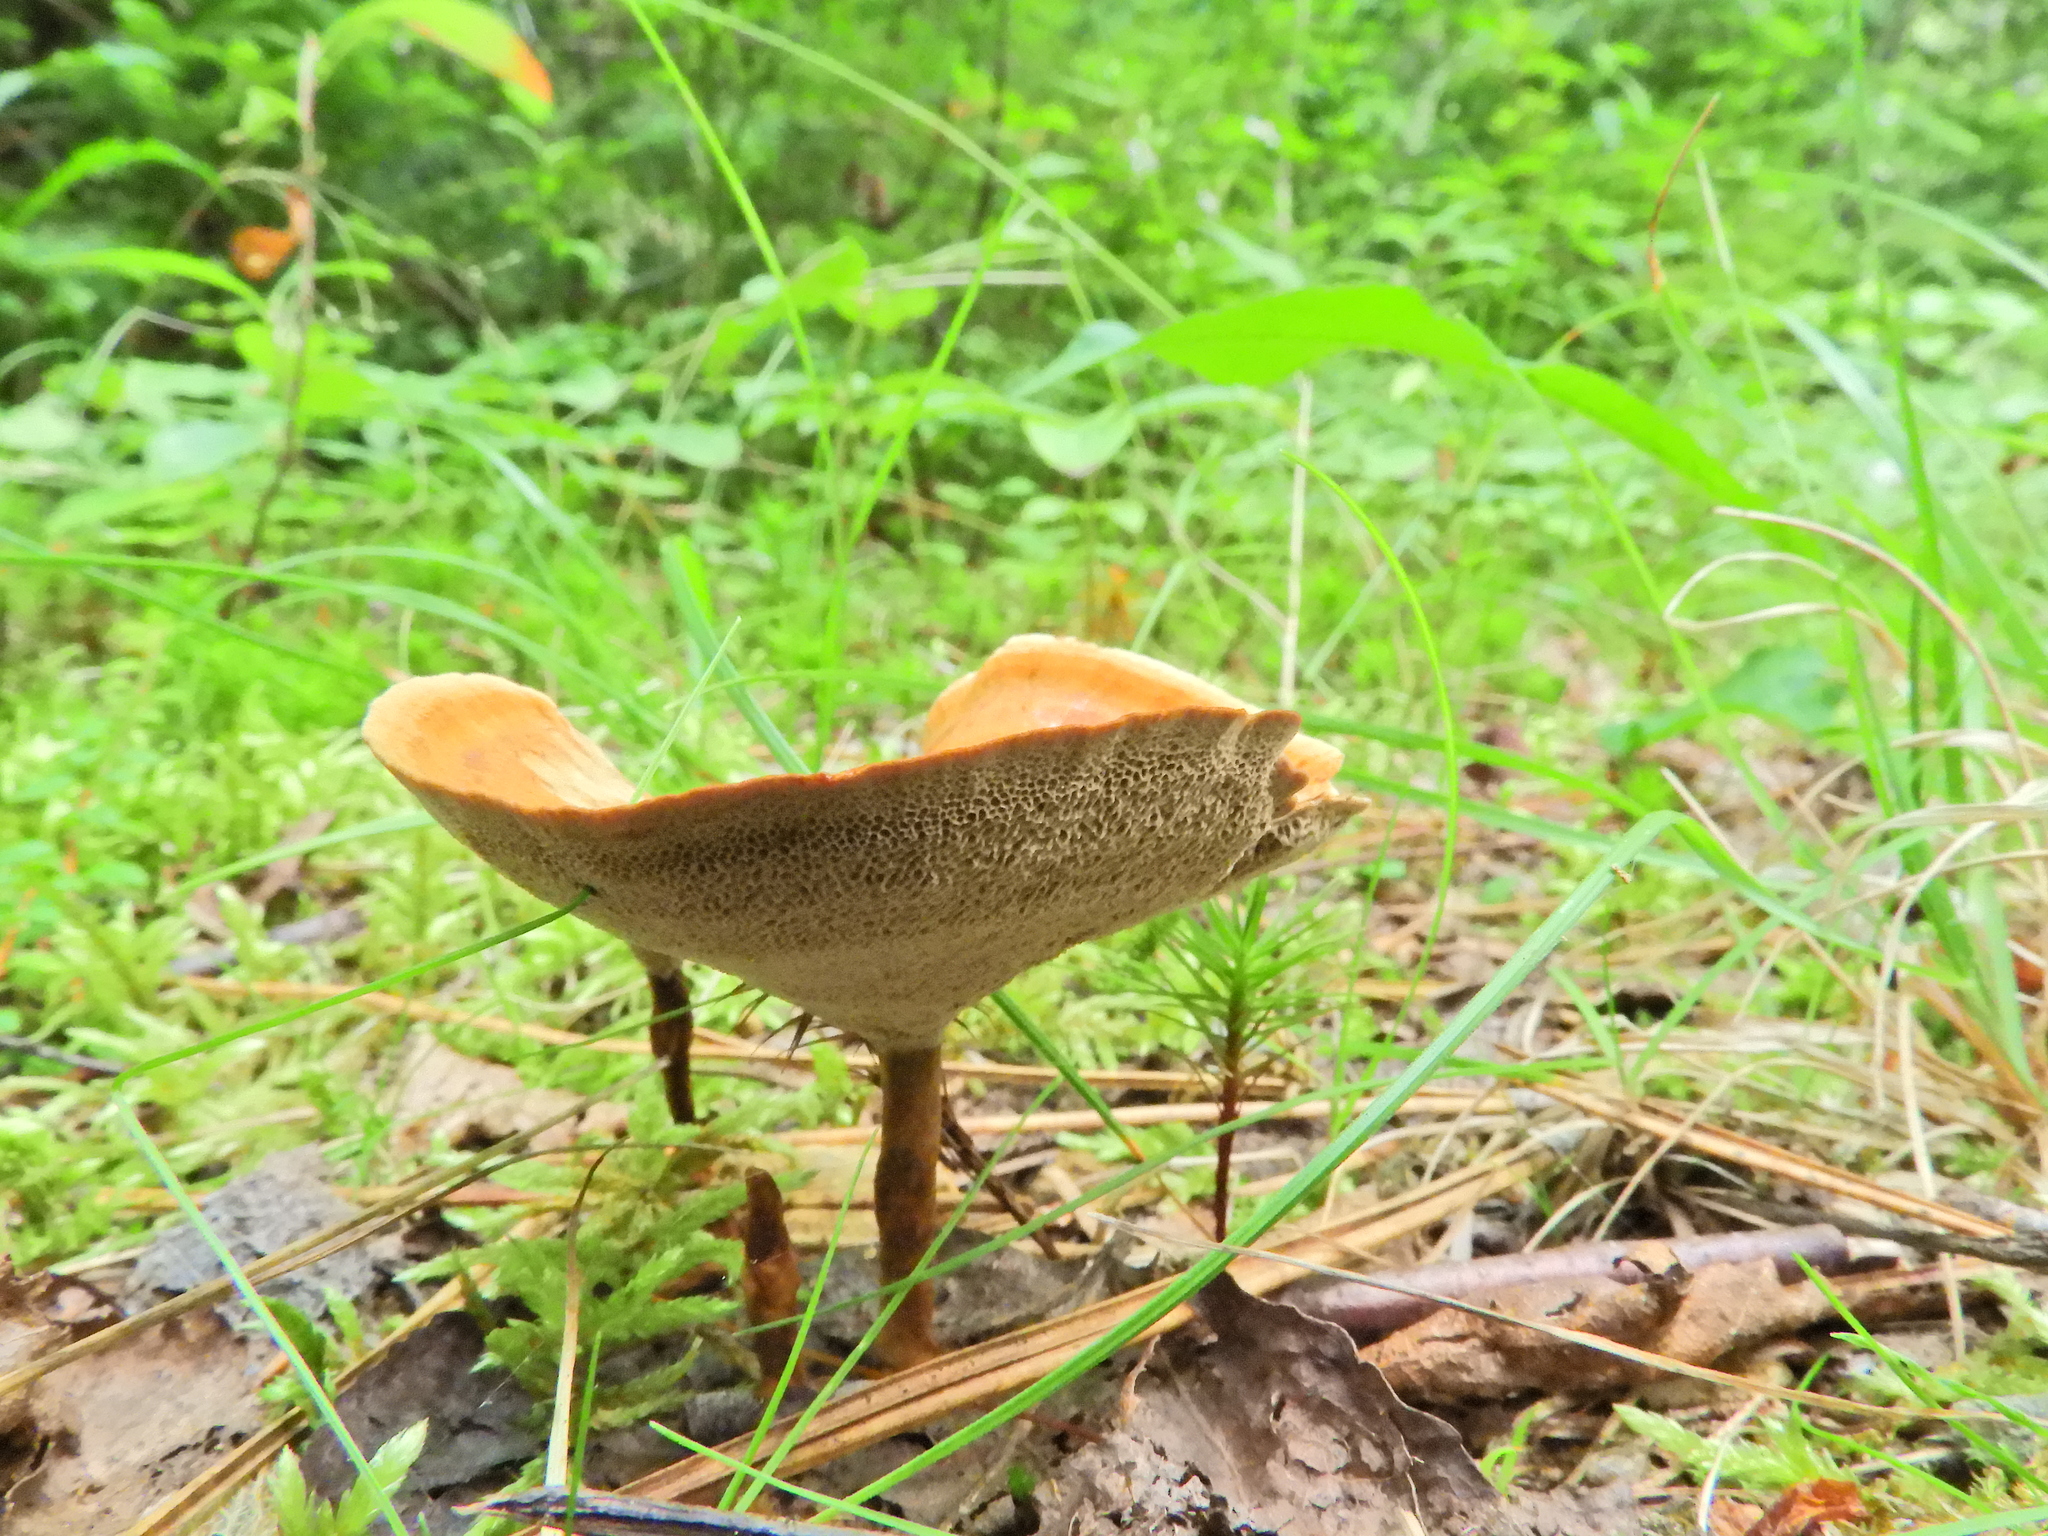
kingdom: Fungi
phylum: Basidiomycota
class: Agaricomycetes
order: Hymenochaetales
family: Hymenochaetaceae
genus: Coltricia
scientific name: Coltricia perennis
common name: Tiger's eye
